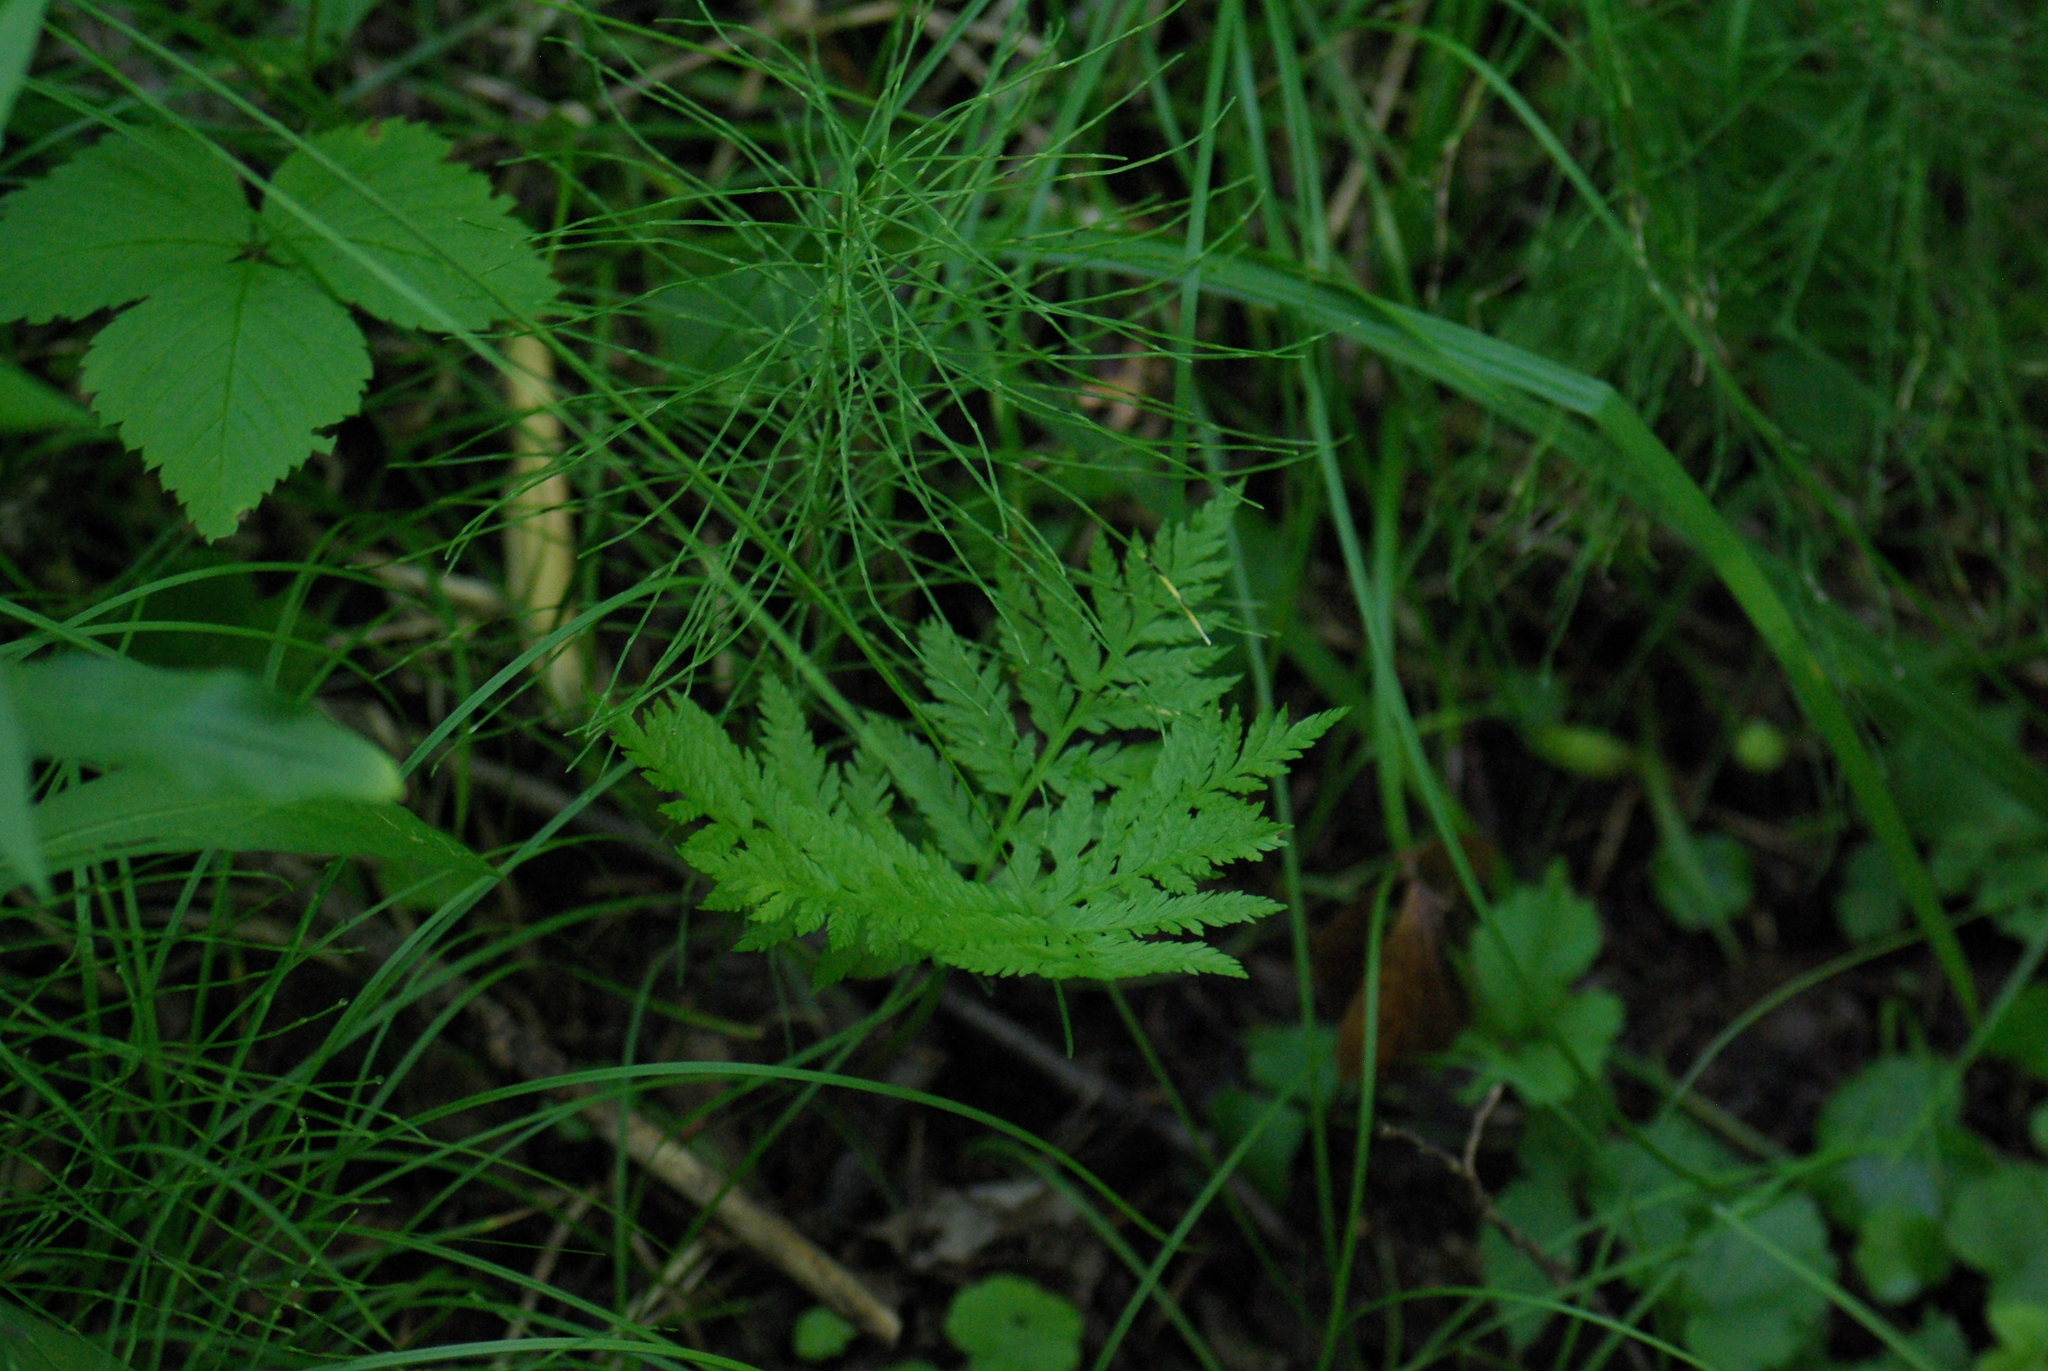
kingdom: Plantae
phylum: Tracheophyta
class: Polypodiopsida
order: Ophioglossales
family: Ophioglossaceae
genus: Botrypus
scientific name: Botrypus virginianus
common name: Common grapefern
